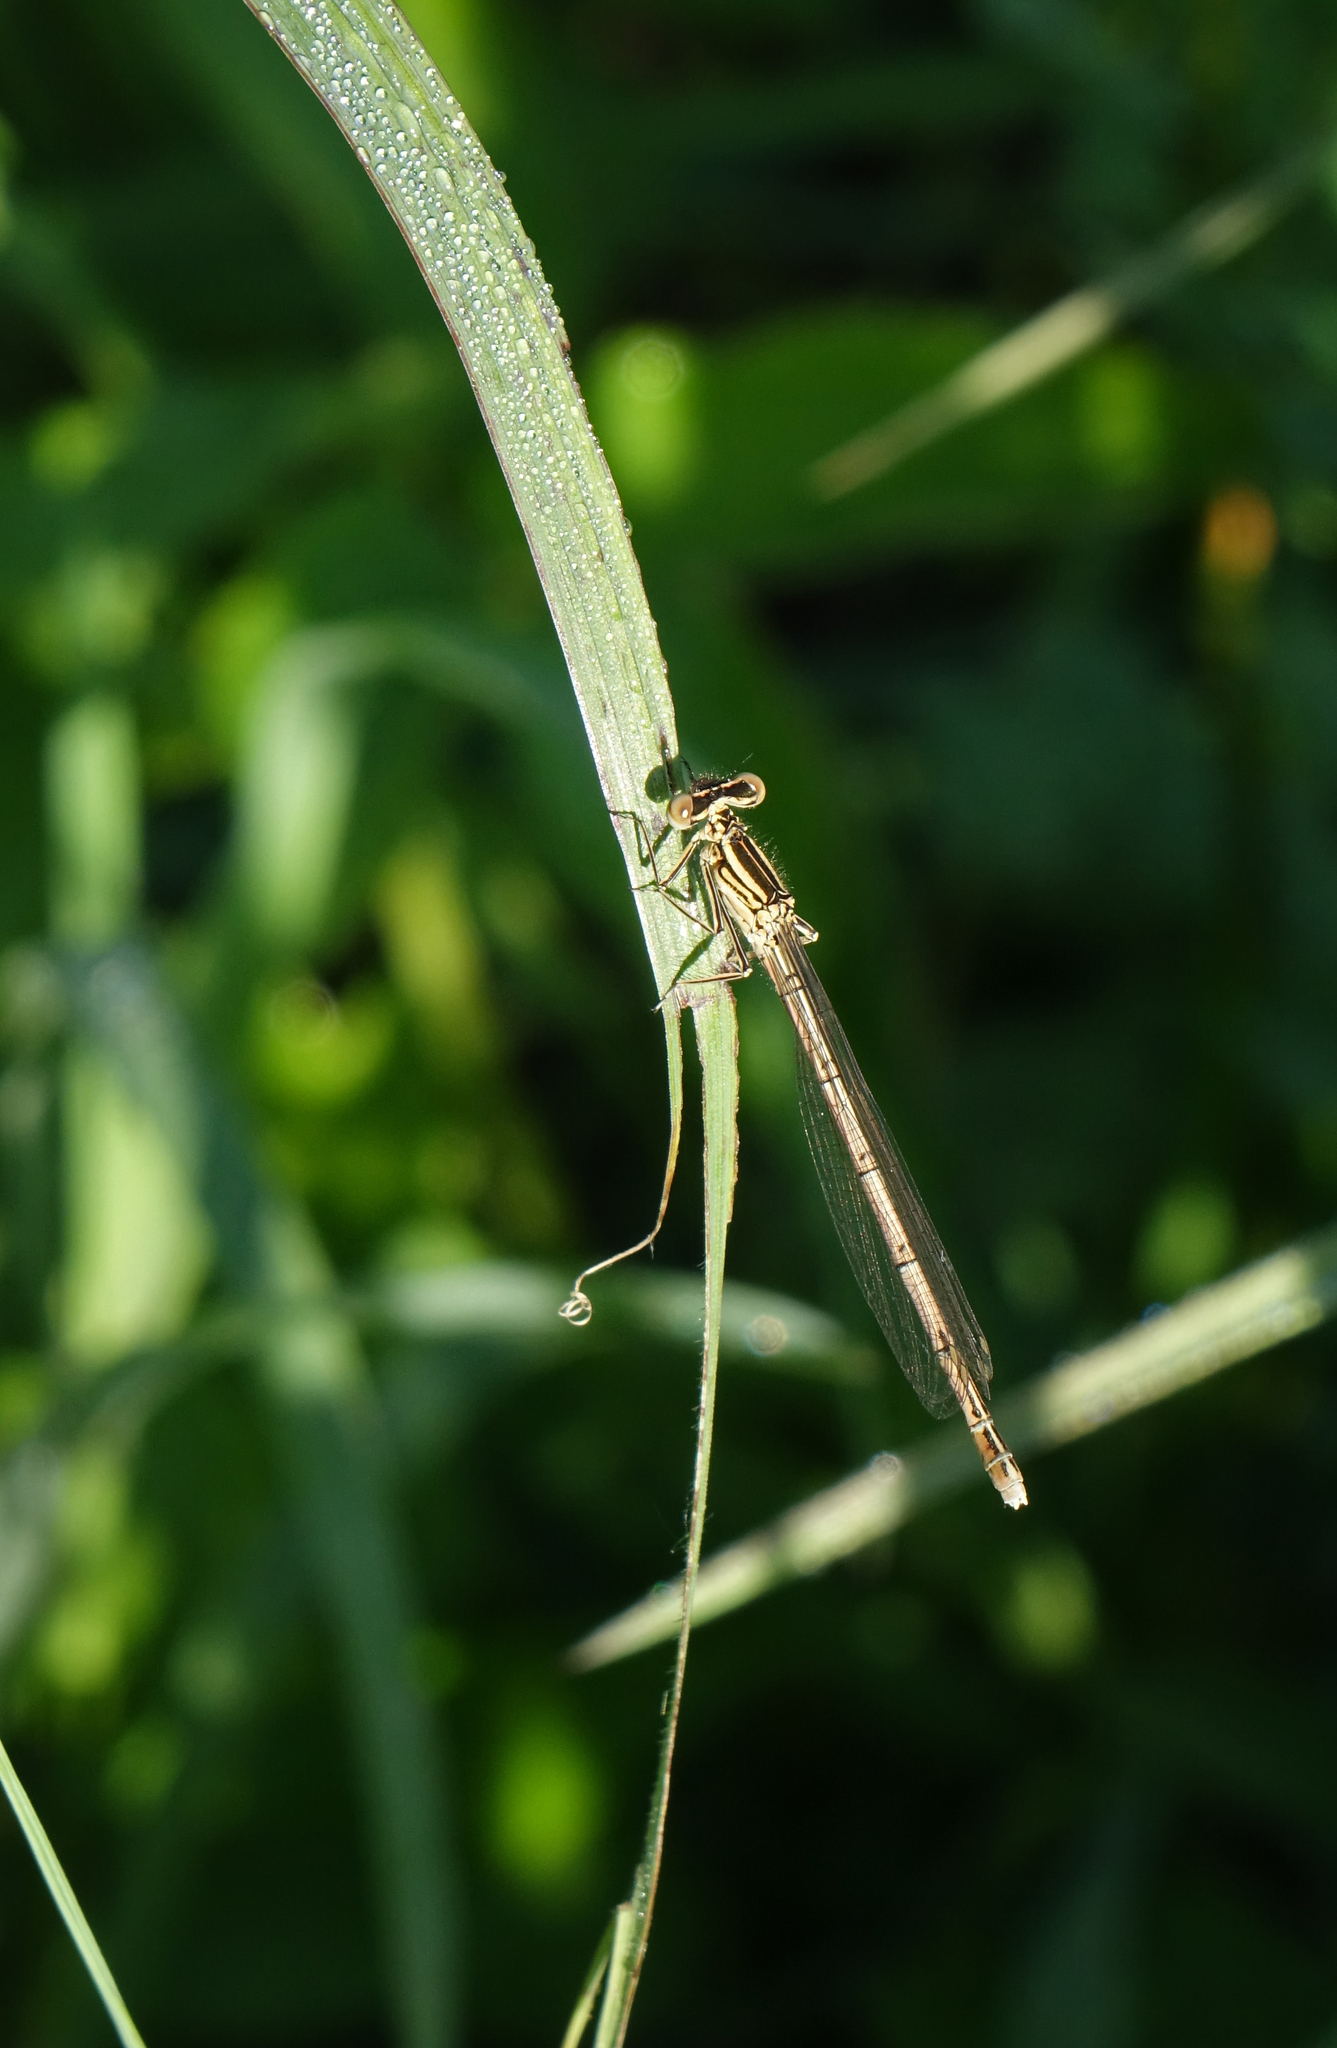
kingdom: Animalia
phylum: Arthropoda
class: Insecta
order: Odonata
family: Platycnemididae
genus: Platycnemis
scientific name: Platycnemis pennipes
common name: White-legged damselfly
